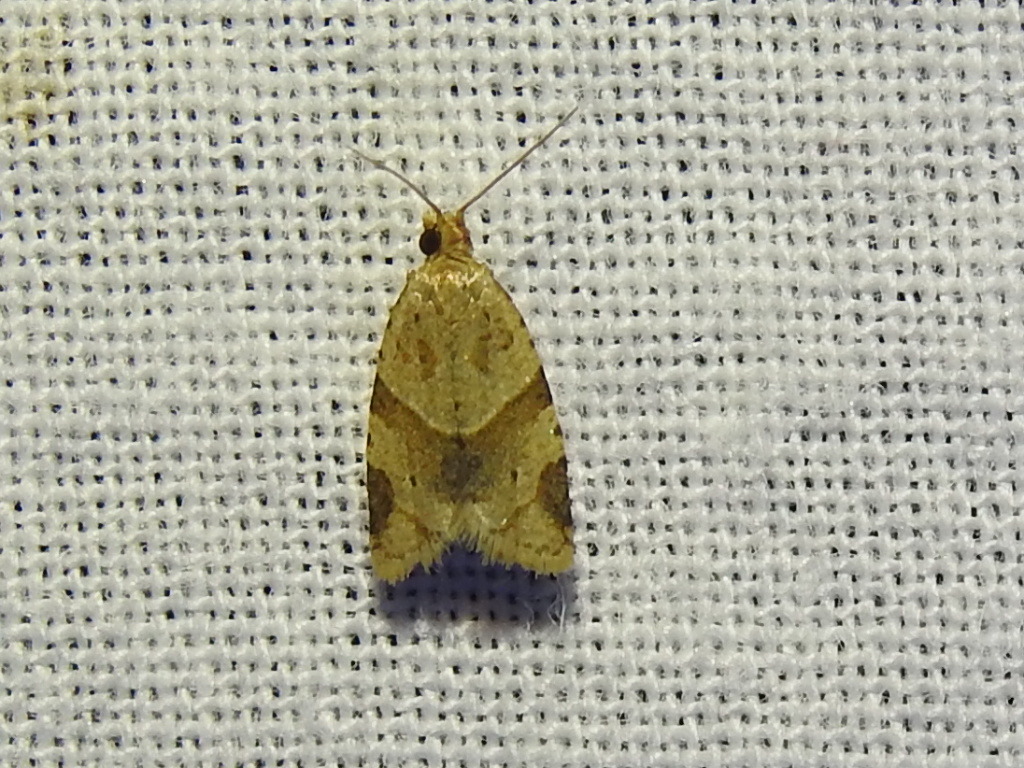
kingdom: Animalia
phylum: Arthropoda
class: Insecta
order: Lepidoptera
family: Tortricidae
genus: Clepsis
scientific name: Clepsis peritana
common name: Garden tortrix
